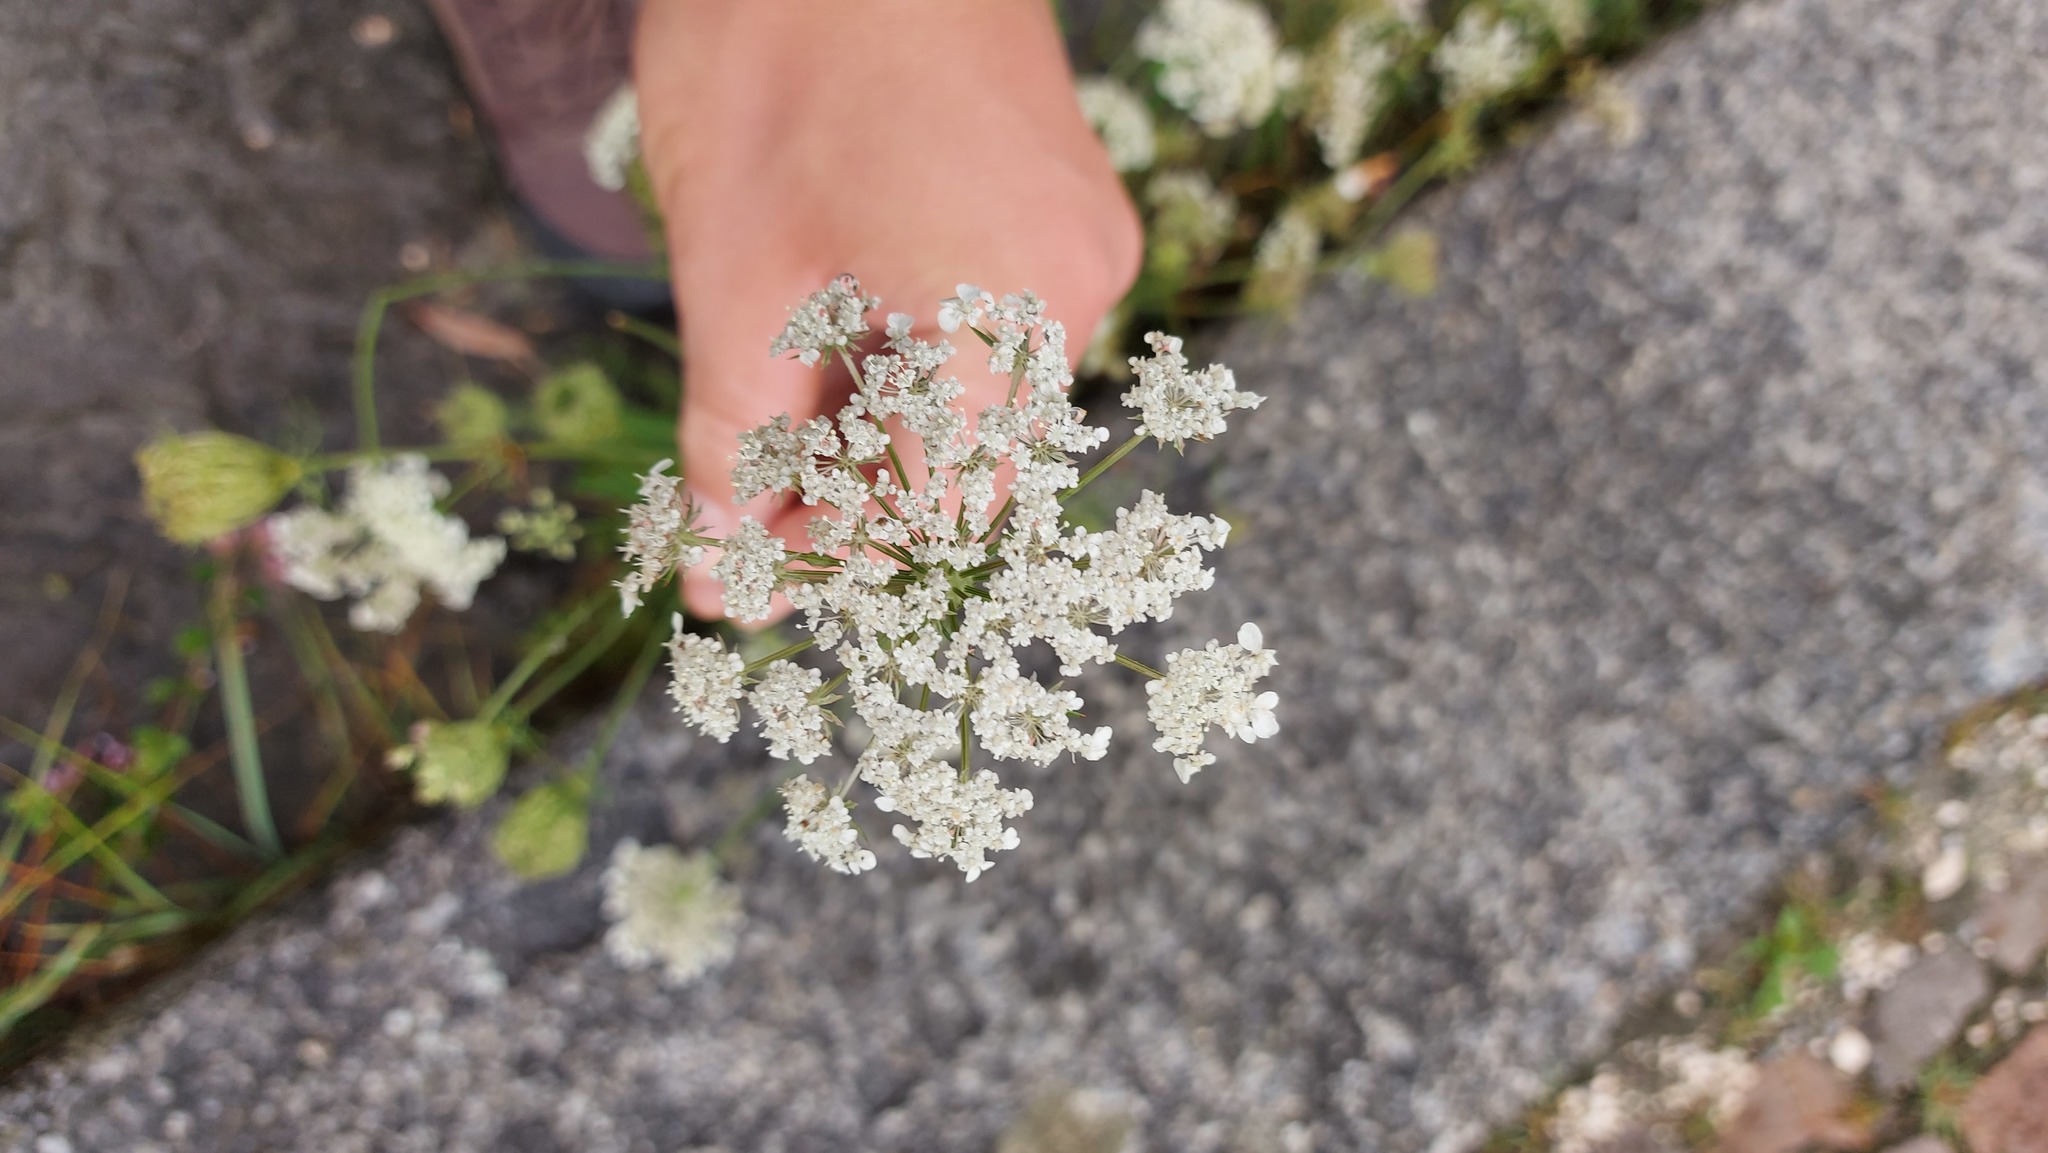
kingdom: Plantae
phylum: Tracheophyta
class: Magnoliopsida
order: Apiales
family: Apiaceae
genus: Daucus
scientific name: Daucus carota
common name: Wild carrot
